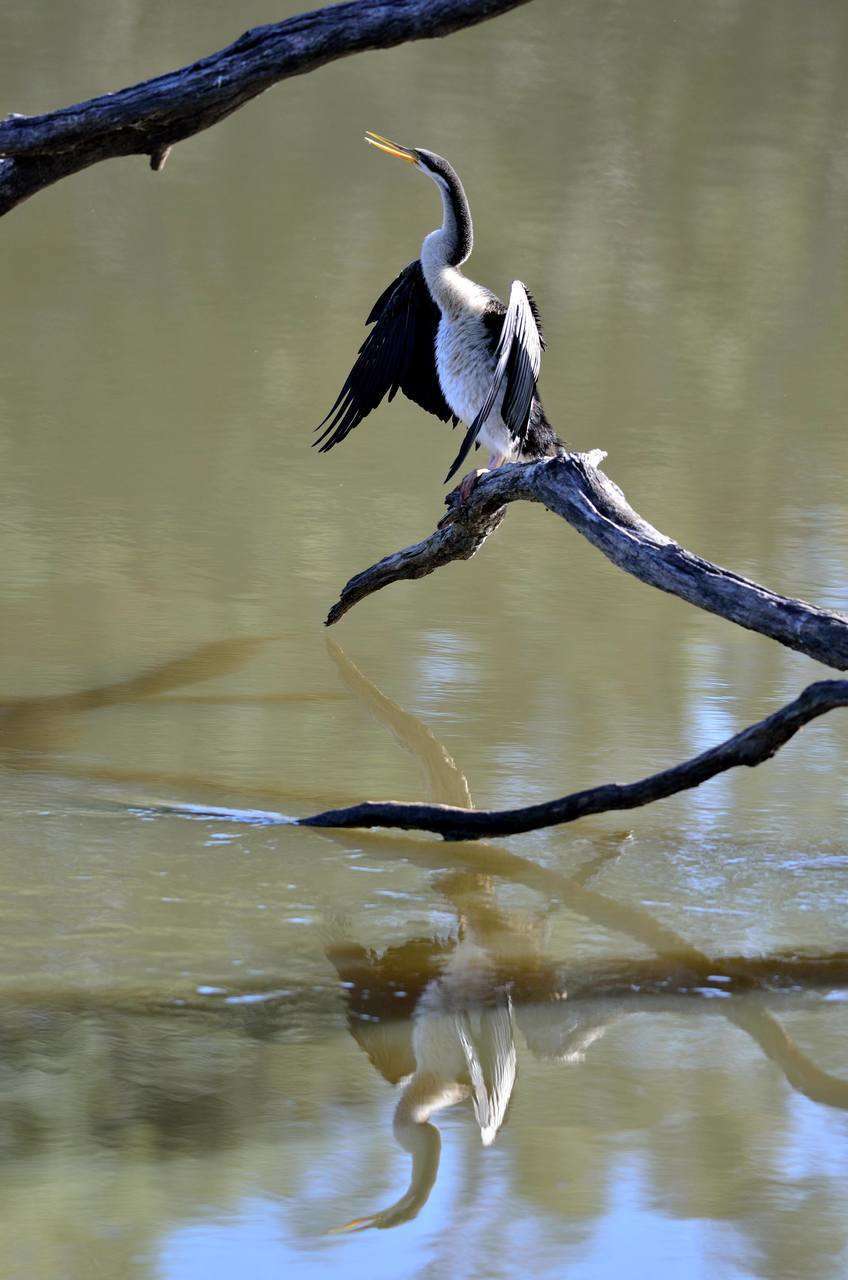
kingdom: Animalia
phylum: Chordata
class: Aves
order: Suliformes
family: Anhingidae
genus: Anhinga
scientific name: Anhinga novaehollandiae
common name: Australasian darter
